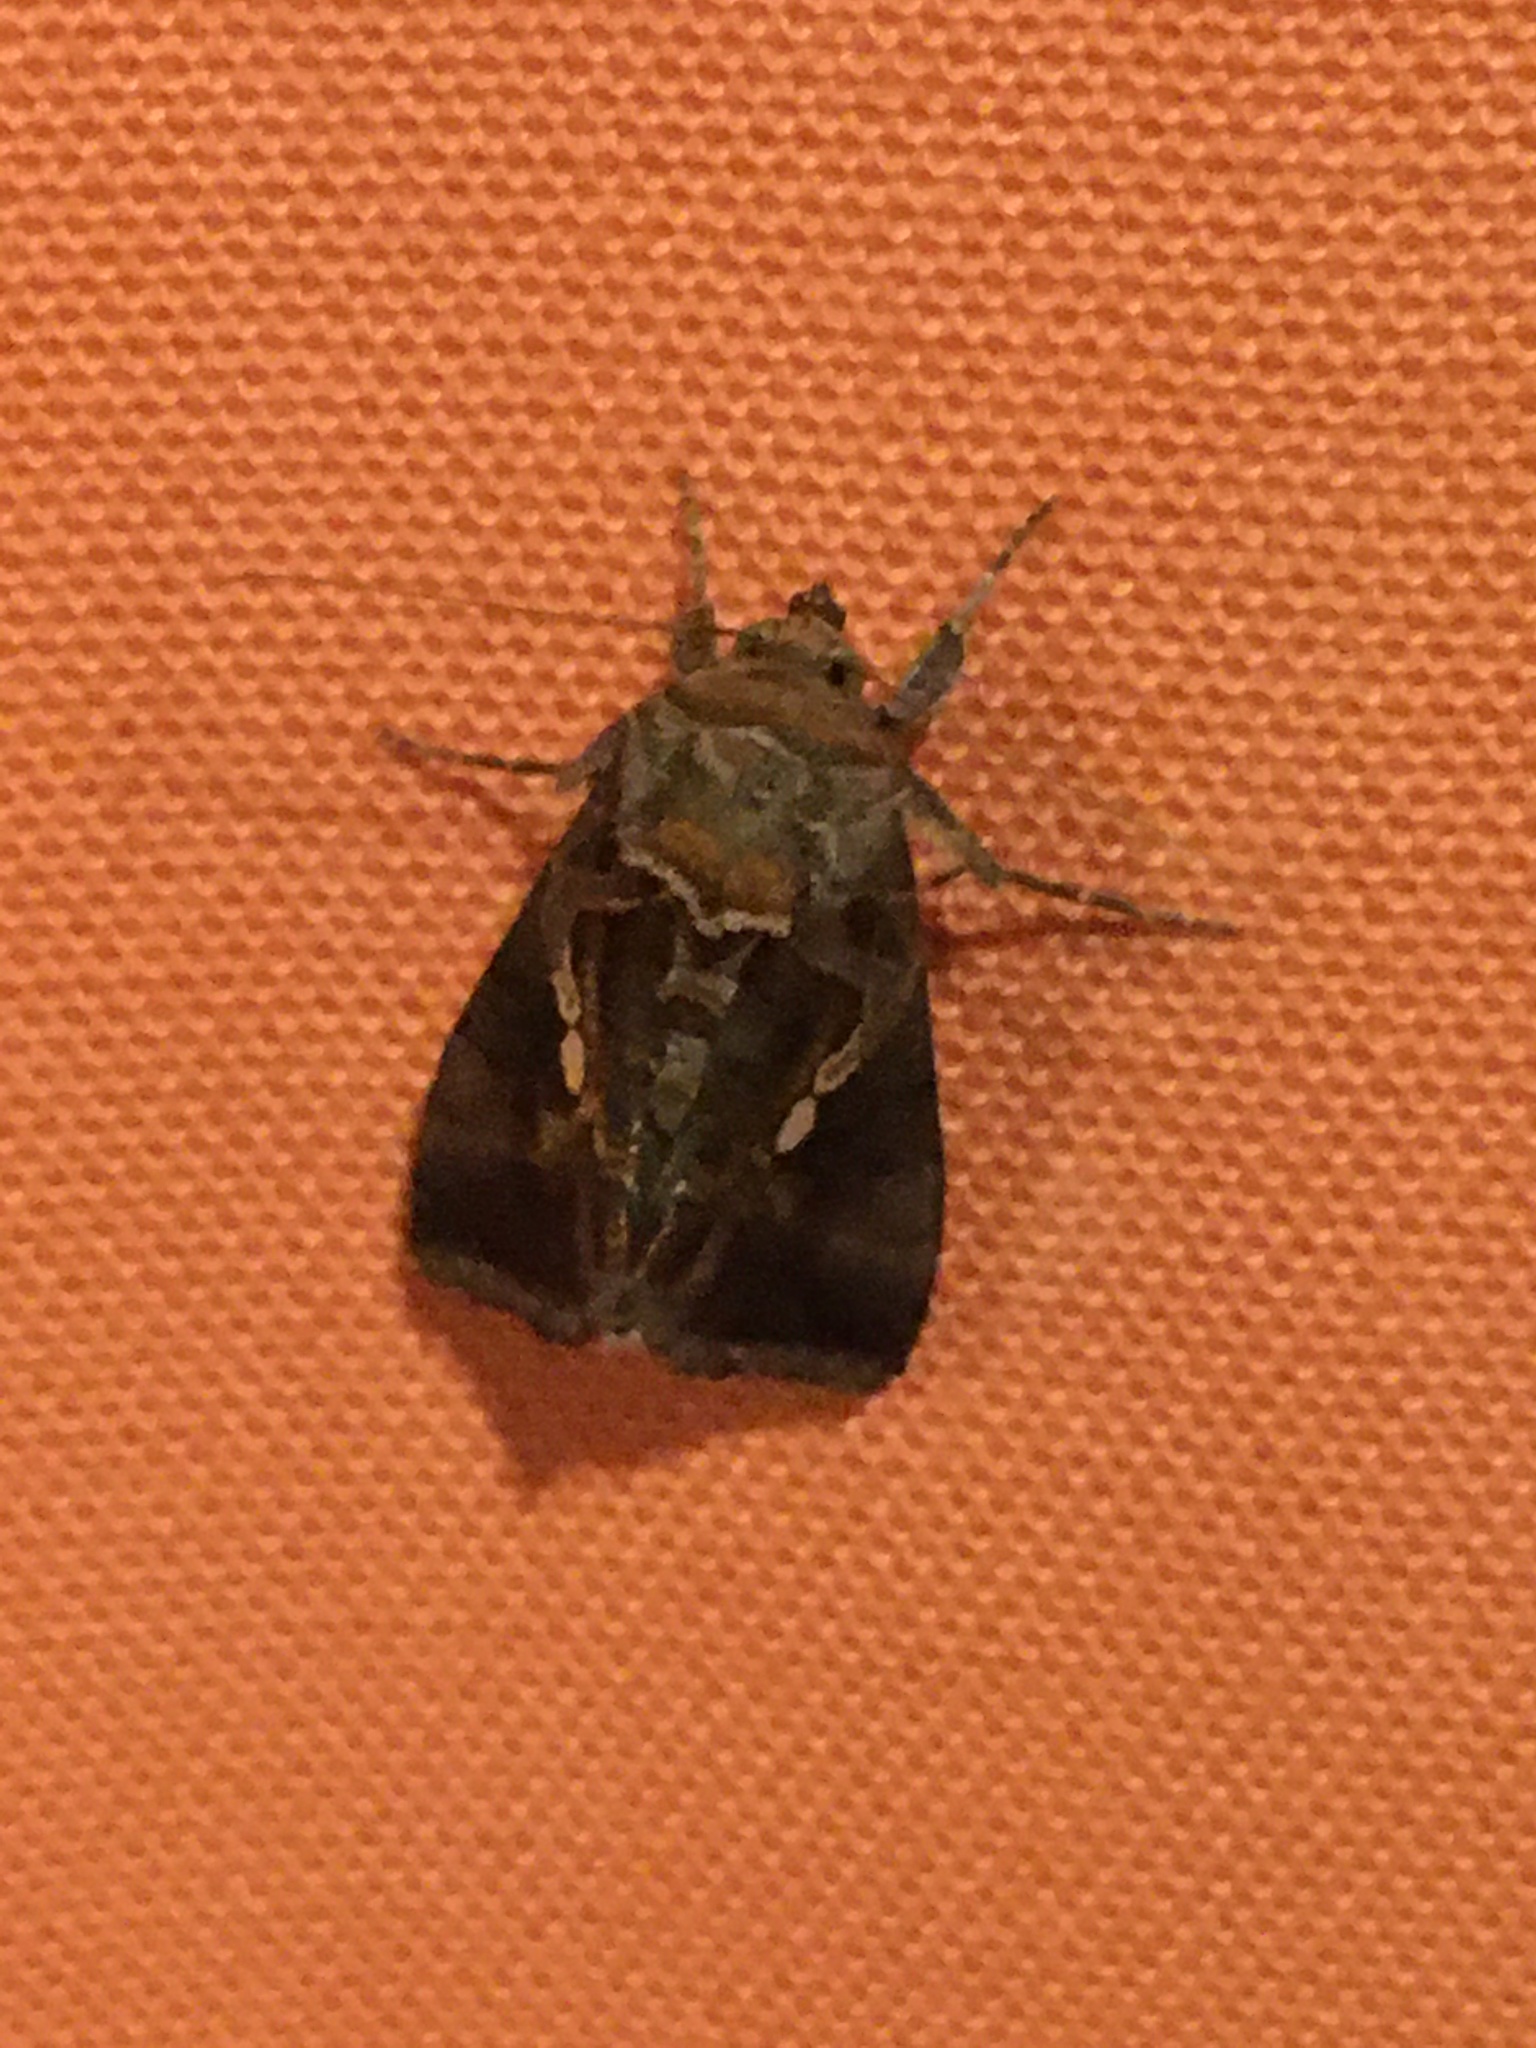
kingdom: Animalia
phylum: Arthropoda
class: Insecta
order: Lepidoptera
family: Noctuidae
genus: Chrysodeixis
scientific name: Chrysodeixis eriosoma
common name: Green garden looper
